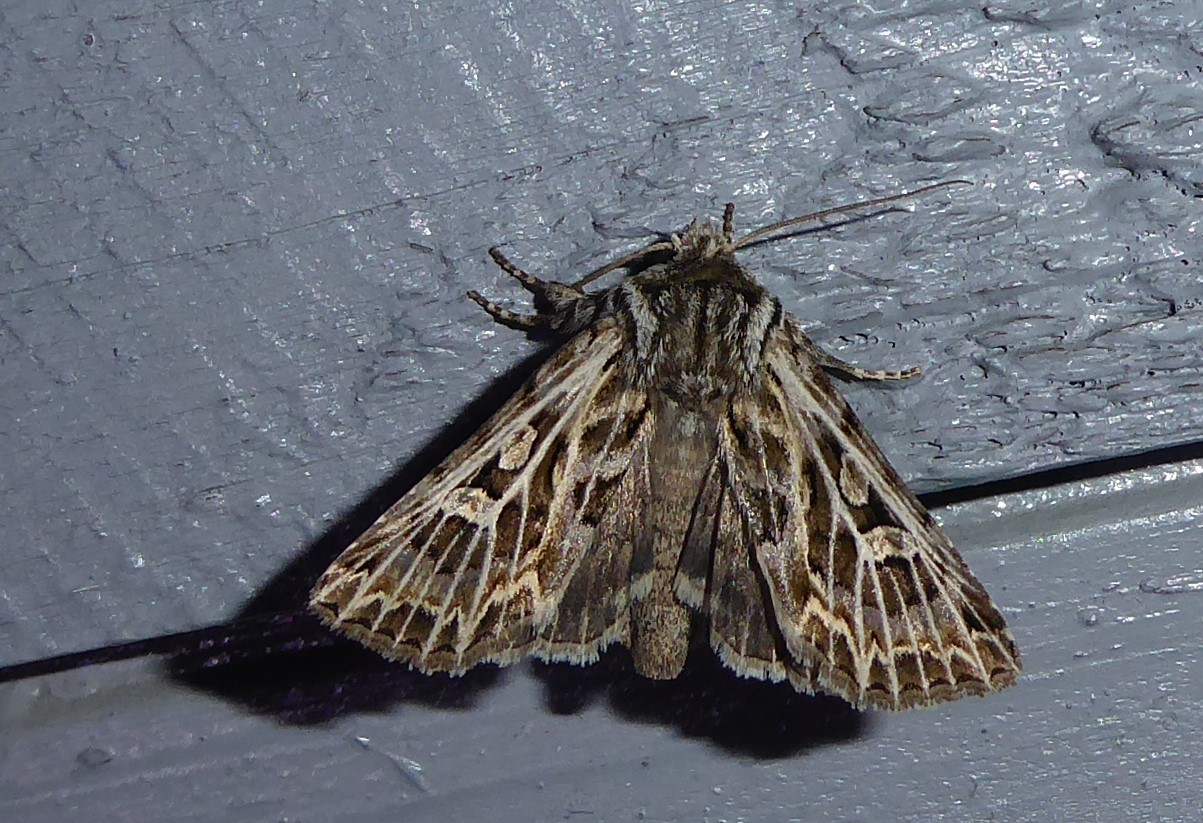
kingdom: Animalia
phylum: Arthropoda
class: Insecta
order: Lepidoptera
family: Noctuidae
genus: Ichneutica
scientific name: Ichneutica
